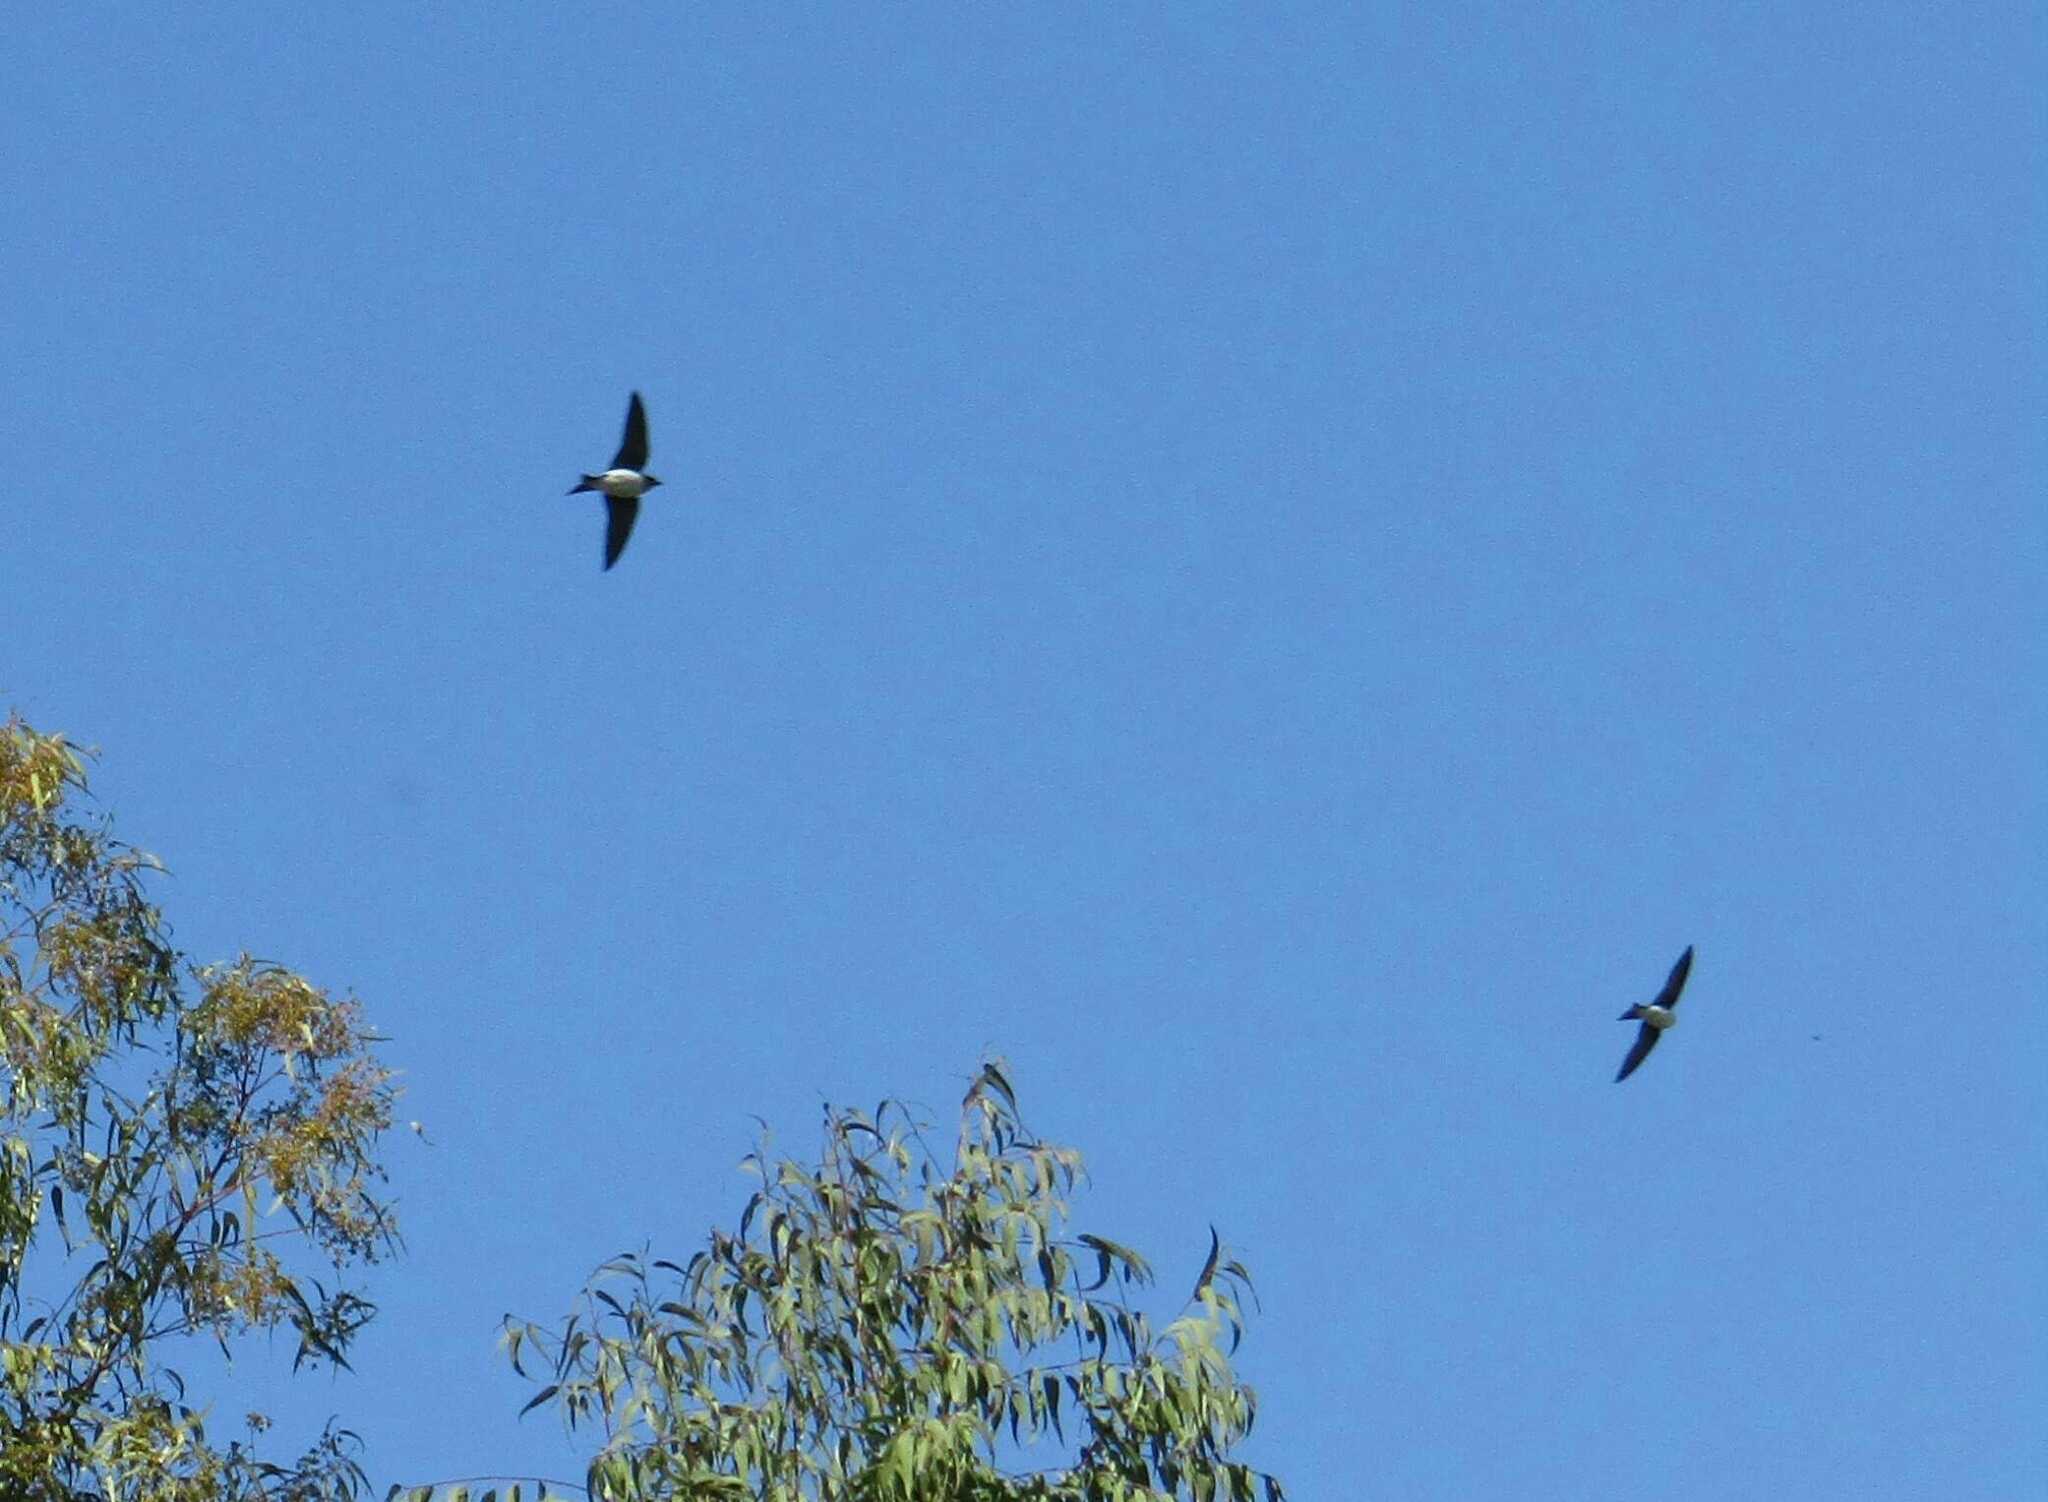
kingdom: Animalia
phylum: Chordata
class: Aves
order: Passeriformes
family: Hirundinidae
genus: Progne
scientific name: Progne chalybea
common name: Grey-breasted martin
